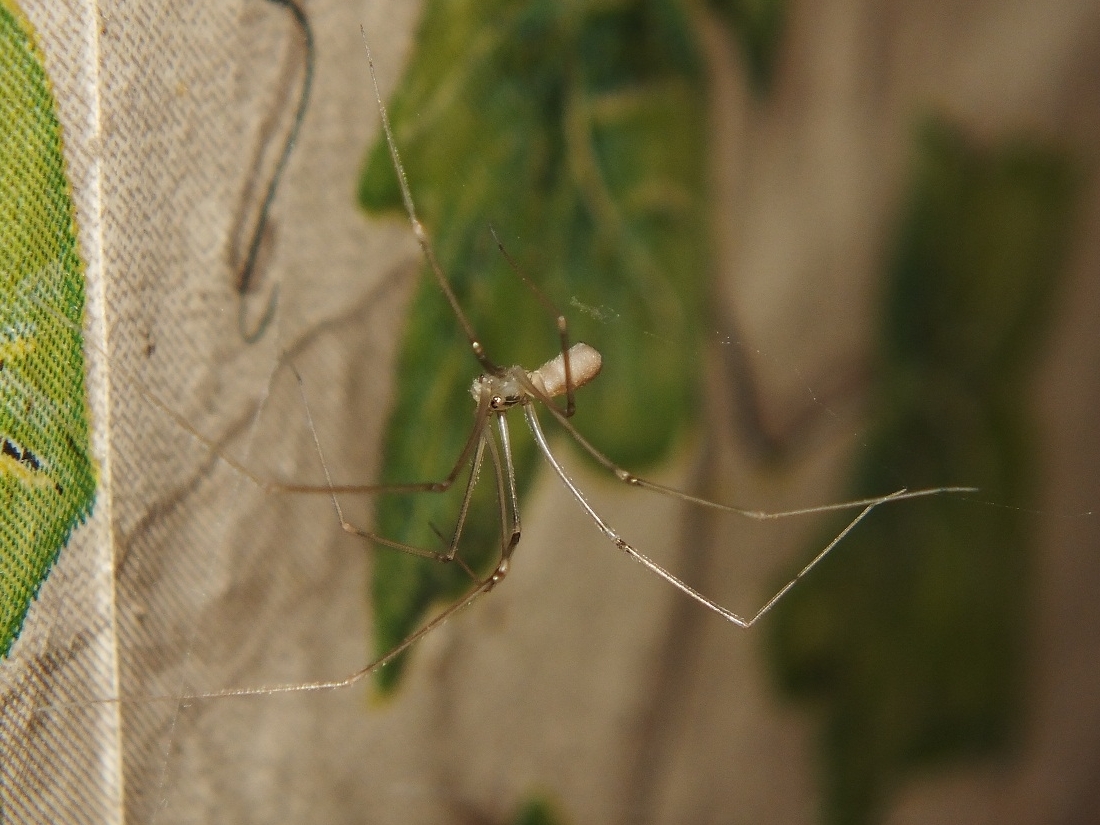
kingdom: Animalia
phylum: Arthropoda
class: Arachnida
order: Araneae
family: Pholcidae
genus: Pholcus
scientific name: Pholcus ponticus
